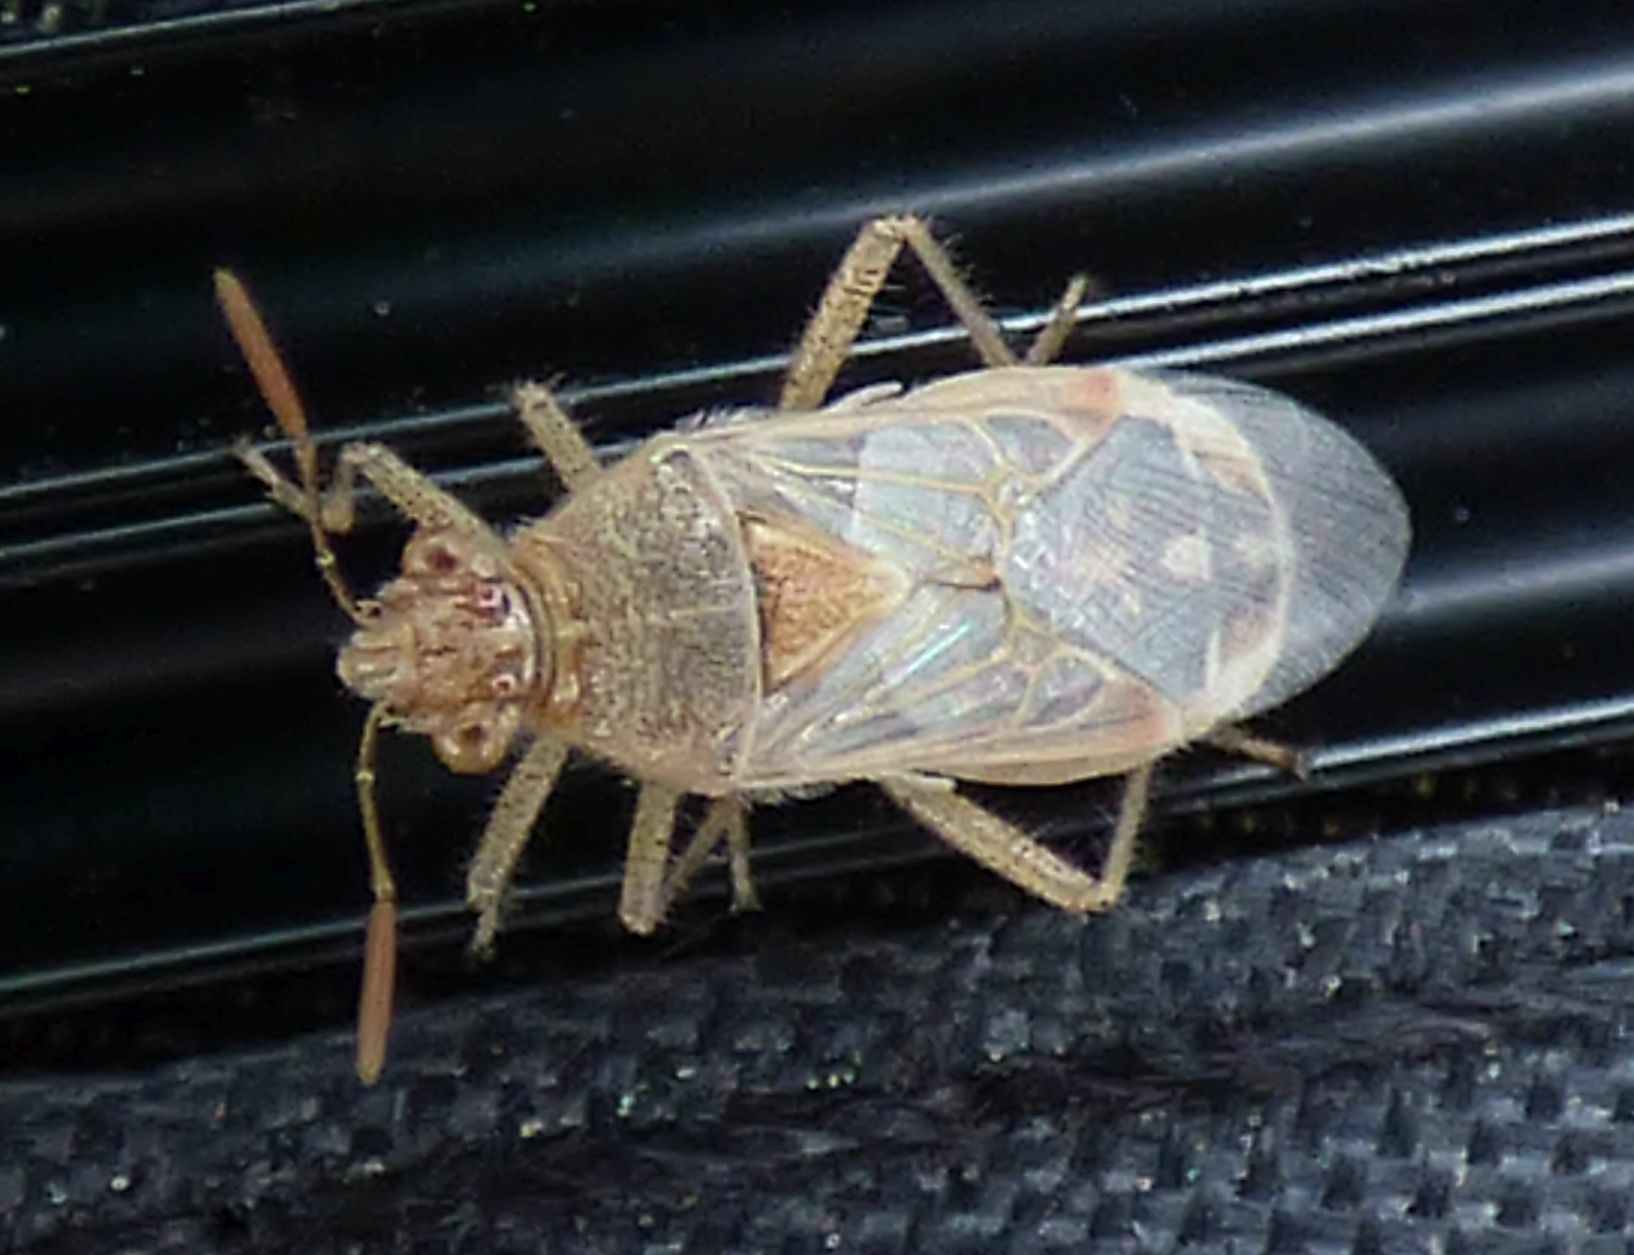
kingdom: Animalia
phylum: Arthropoda
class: Insecta
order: Hemiptera
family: Rhopalidae
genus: Liorhyssus
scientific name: Liorhyssus hyalinus
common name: Scentless plant bug
